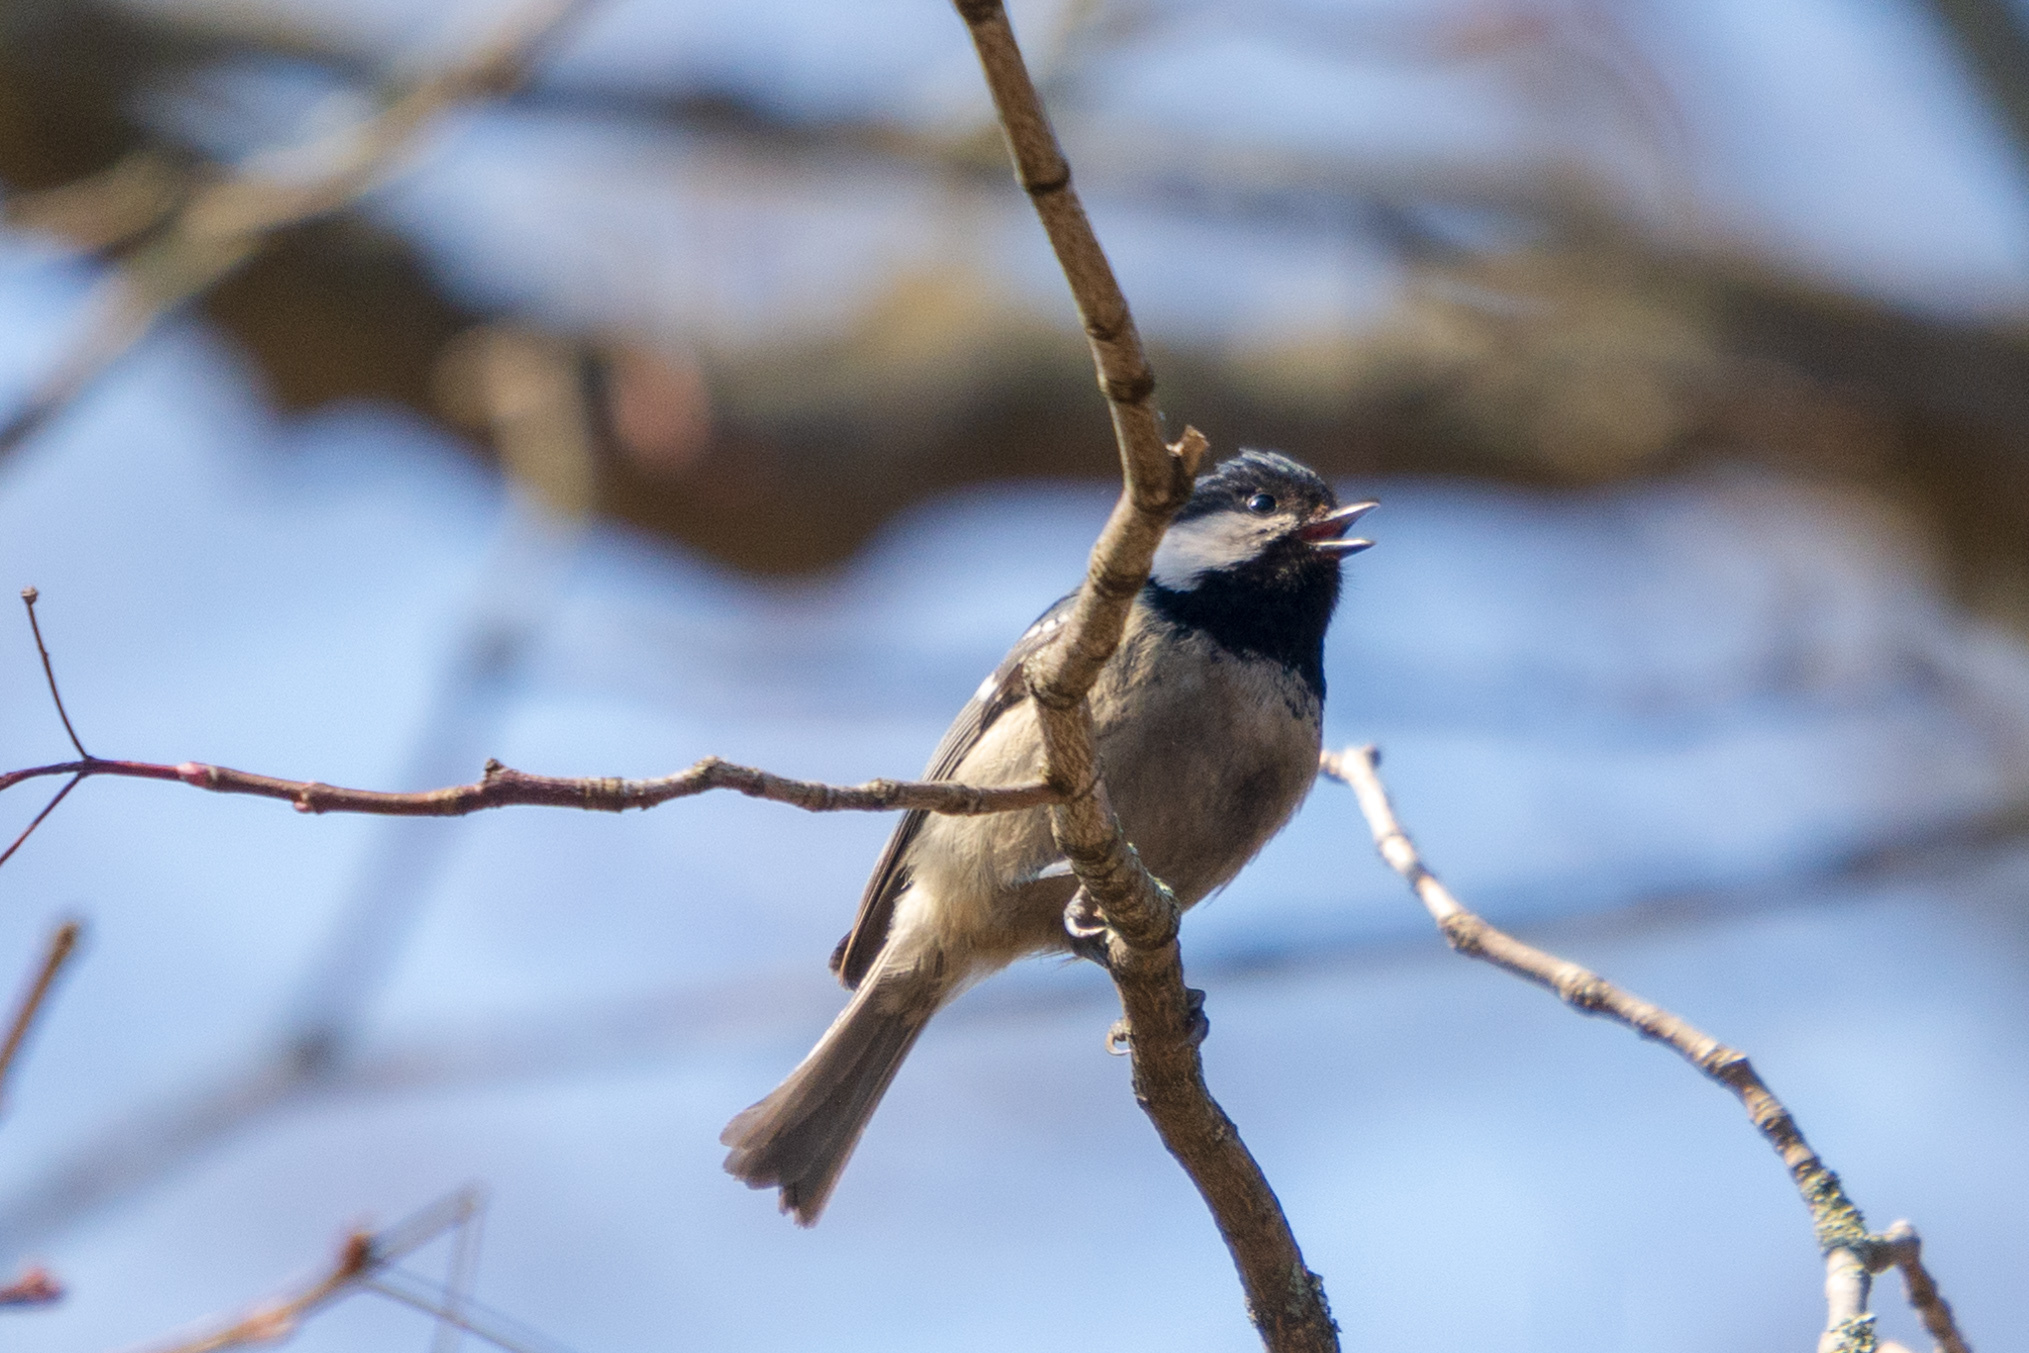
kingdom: Animalia
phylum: Chordata
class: Aves
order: Passeriformes
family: Paridae
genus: Periparus
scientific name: Periparus ater
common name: Coal tit
